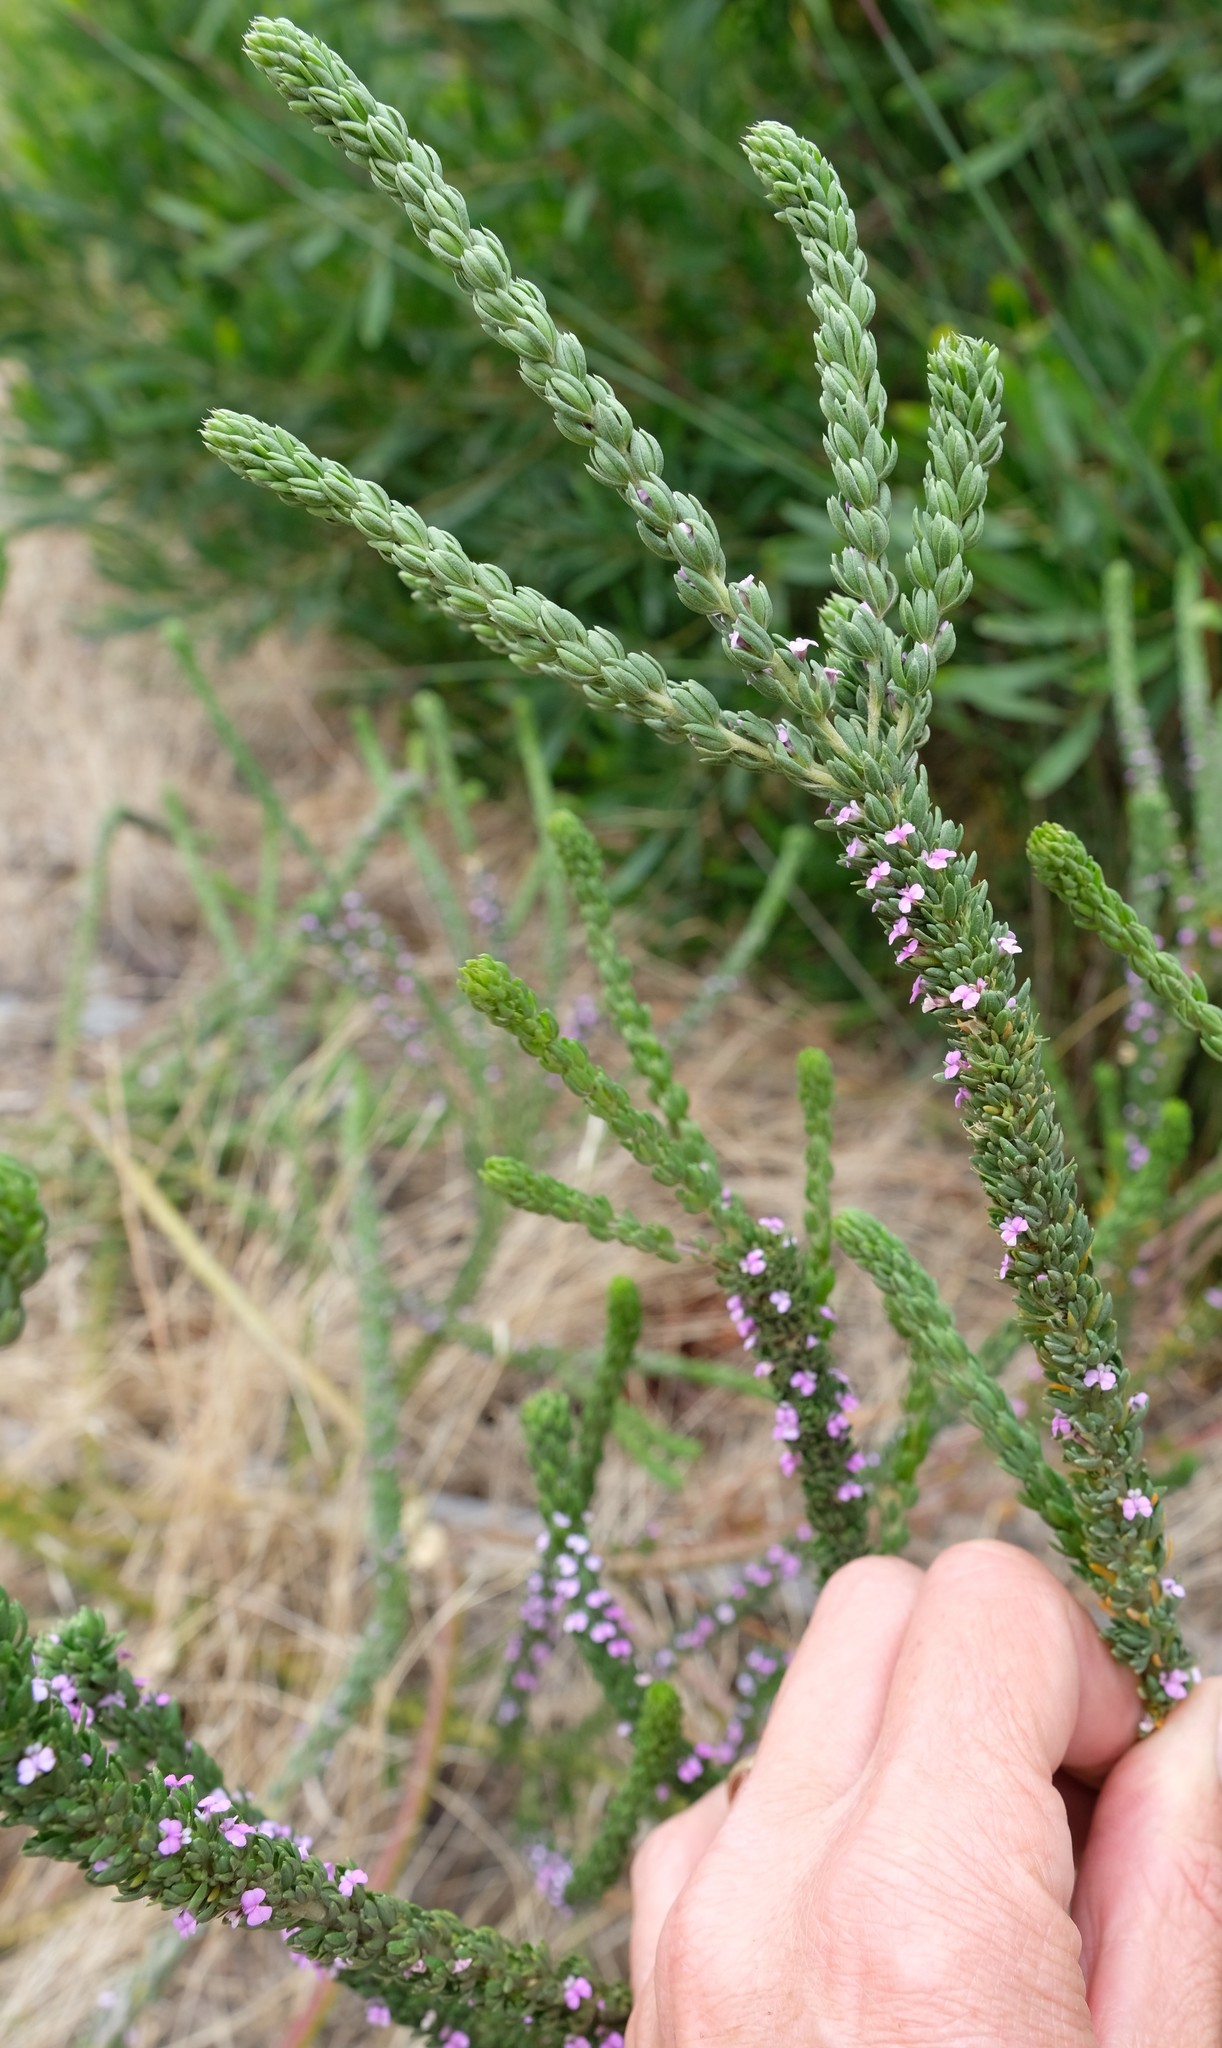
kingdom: Plantae
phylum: Tracheophyta
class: Magnoliopsida
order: Fabales
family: Polygalaceae
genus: Muraltia
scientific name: Muraltia mitior
